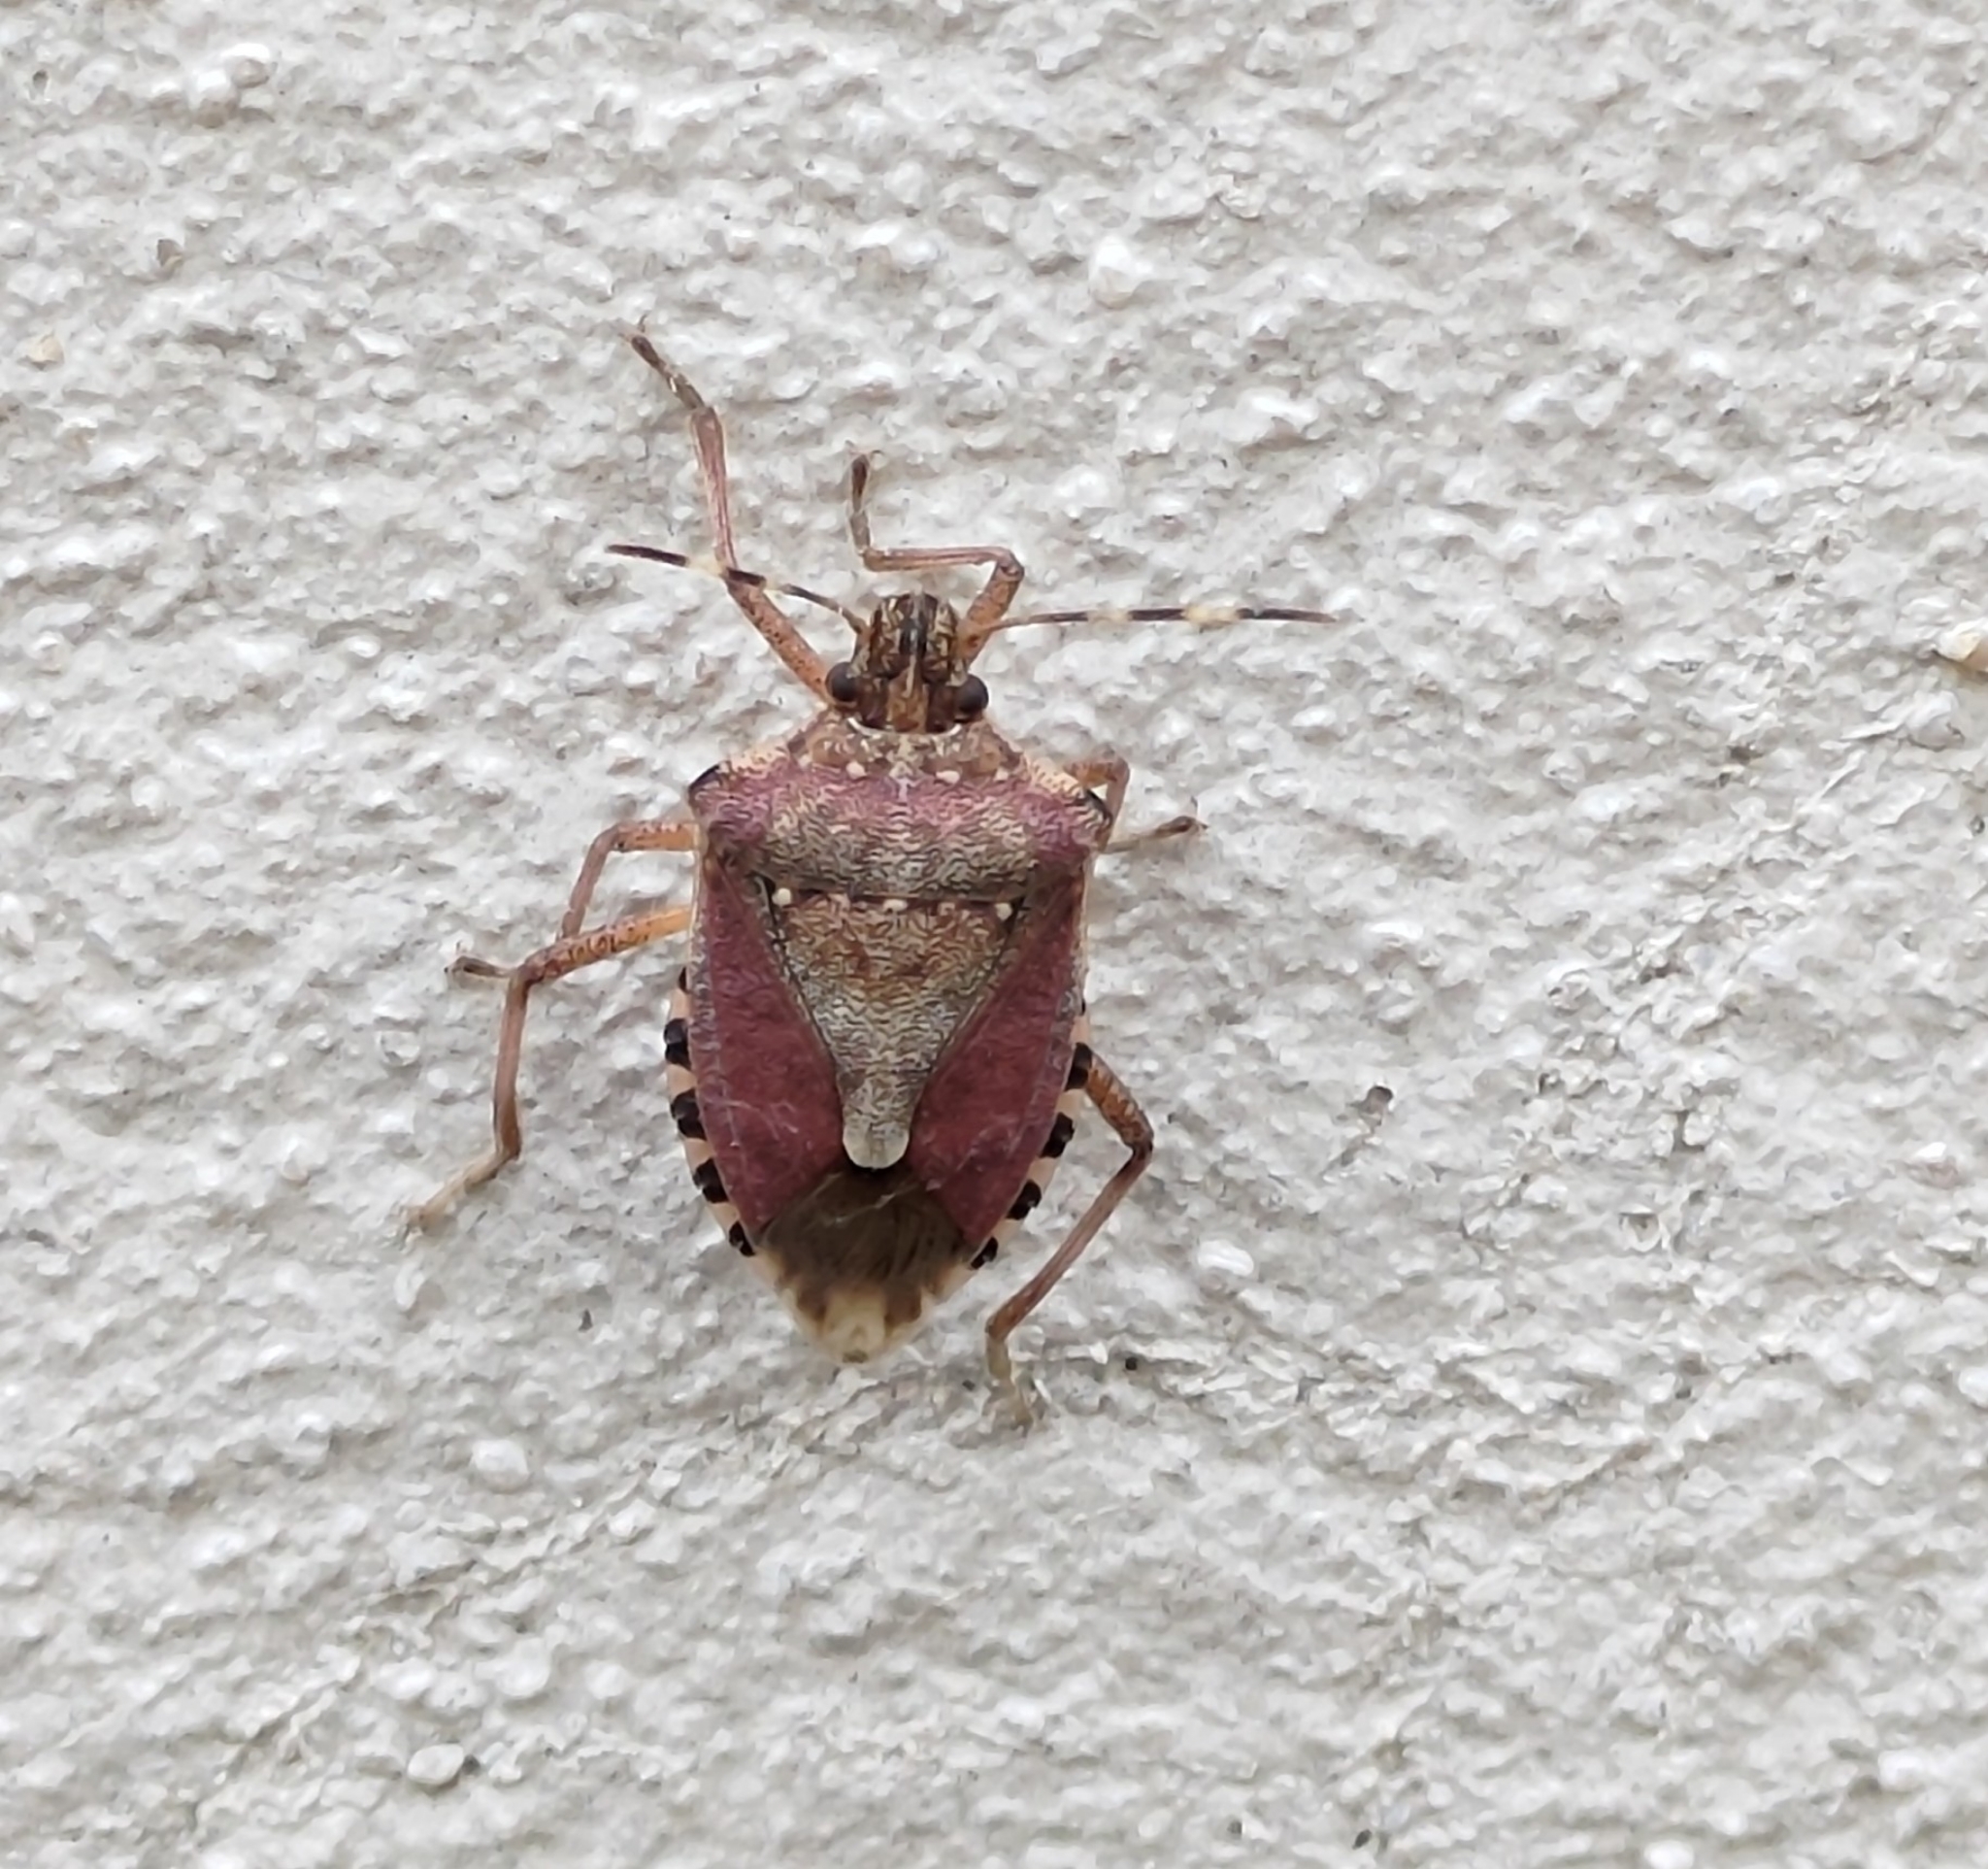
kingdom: Animalia
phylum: Arthropoda
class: Insecta
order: Hemiptera
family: Pentatomidae
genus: Halyomorpha
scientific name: Halyomorpha halys
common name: Brown marmorated stink bug
